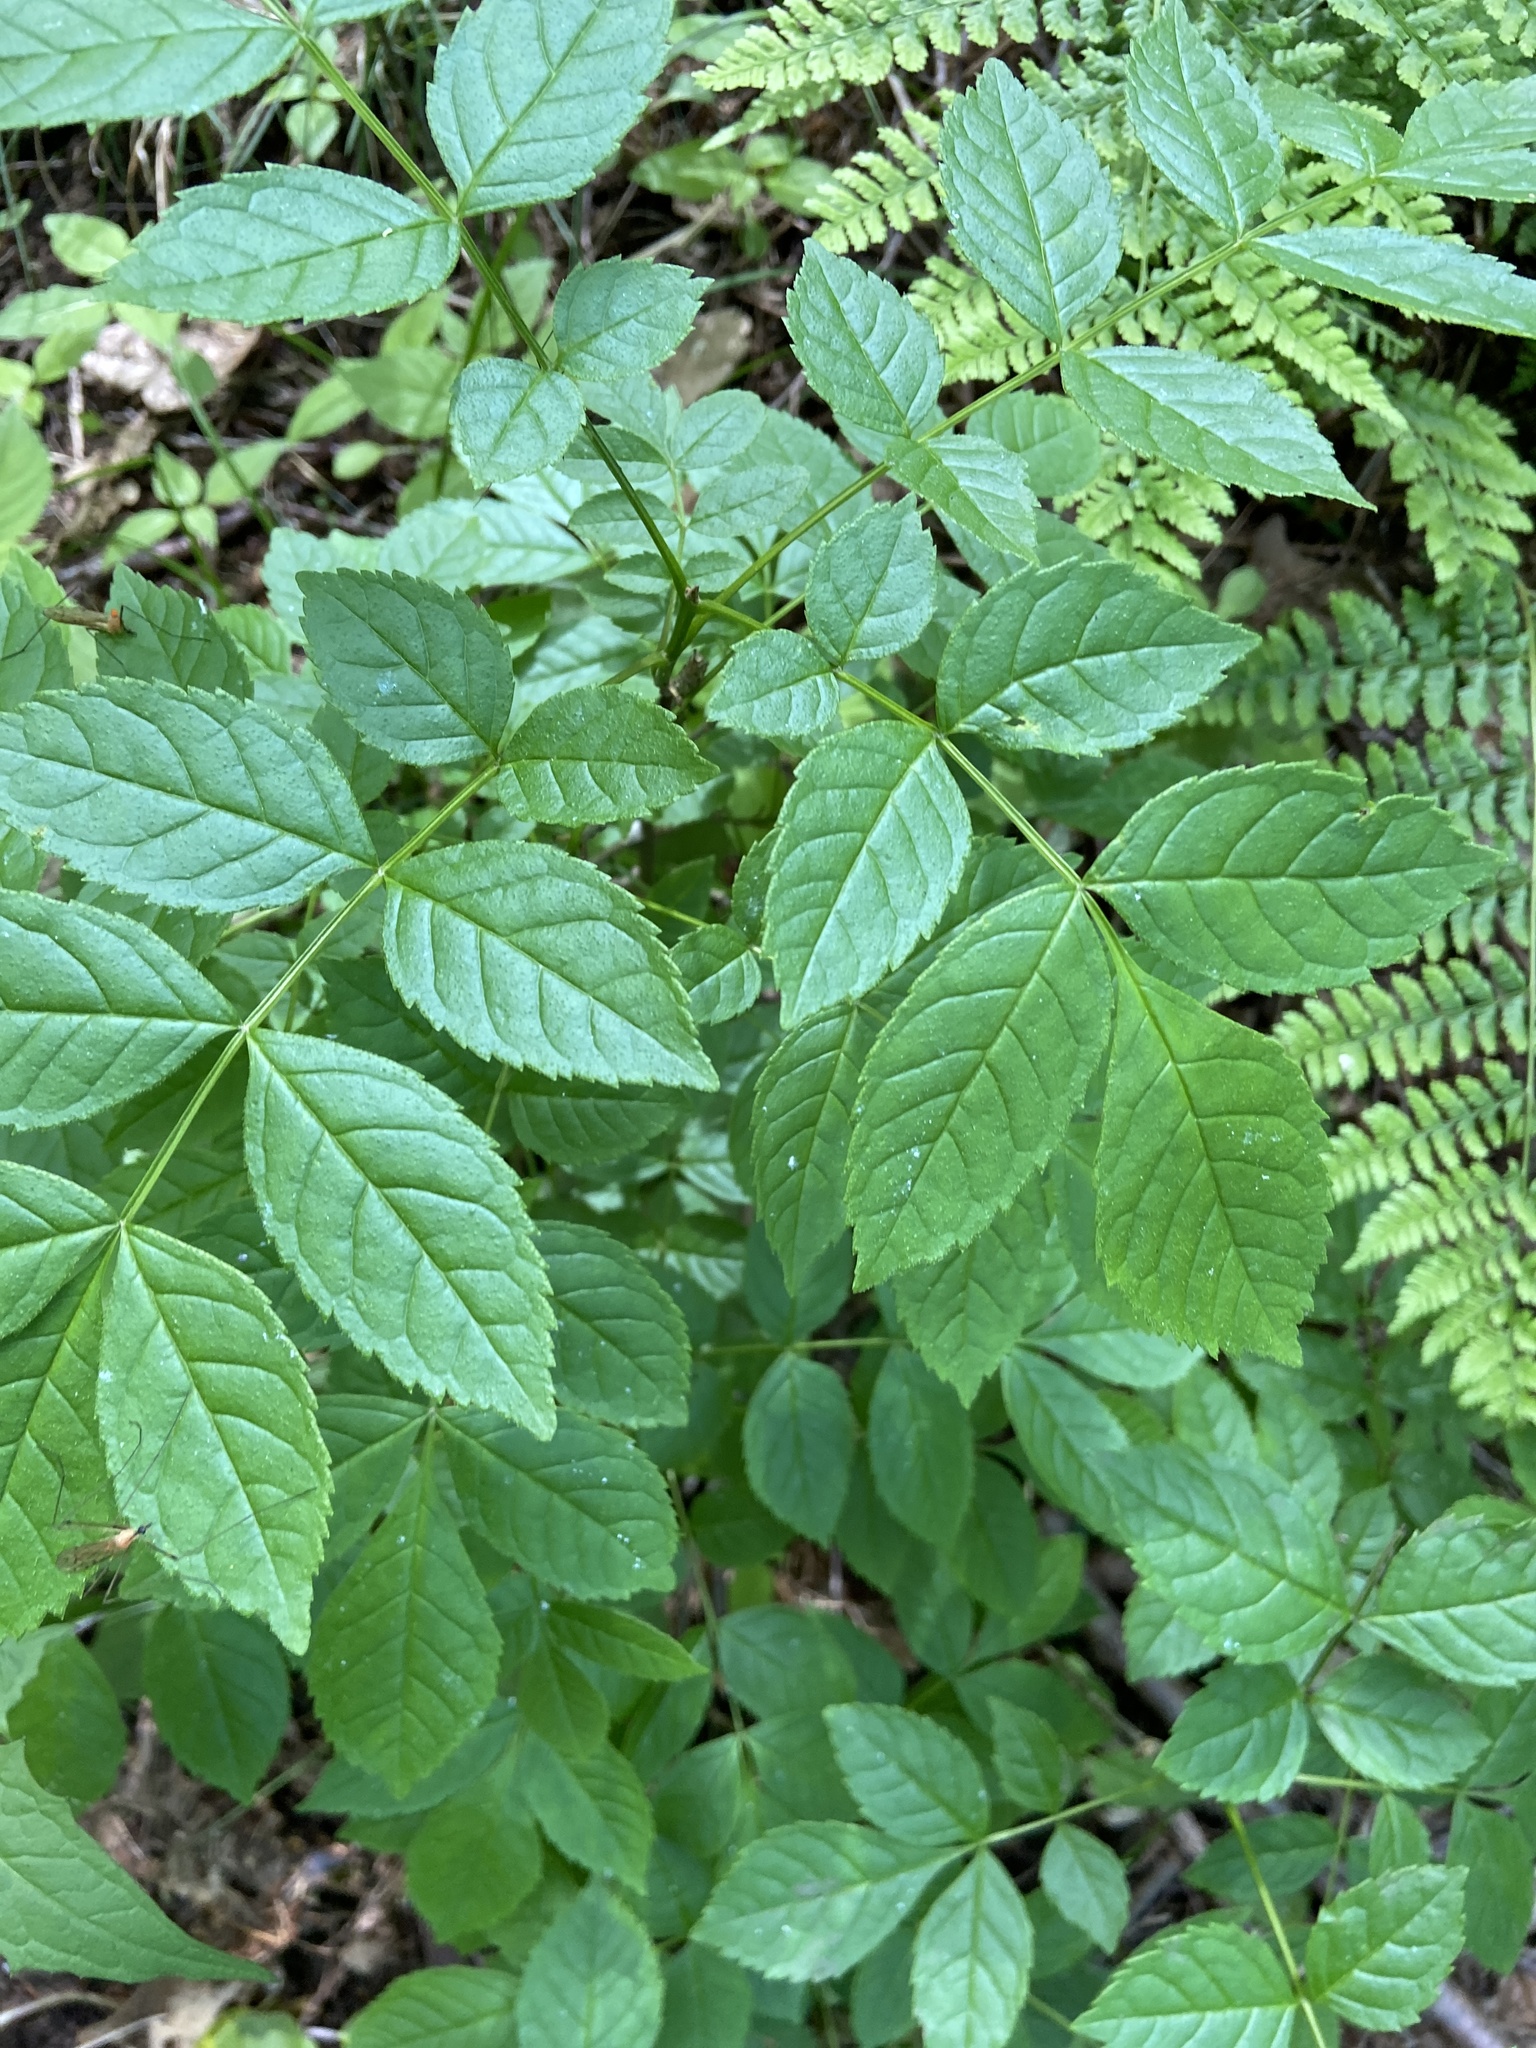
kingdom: Plantae
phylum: Tracheophyta
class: Magnoliopsida
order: Lamiales
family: Oleaceae
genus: Fraxinus
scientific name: Fraxinus excelsior
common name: European ash
